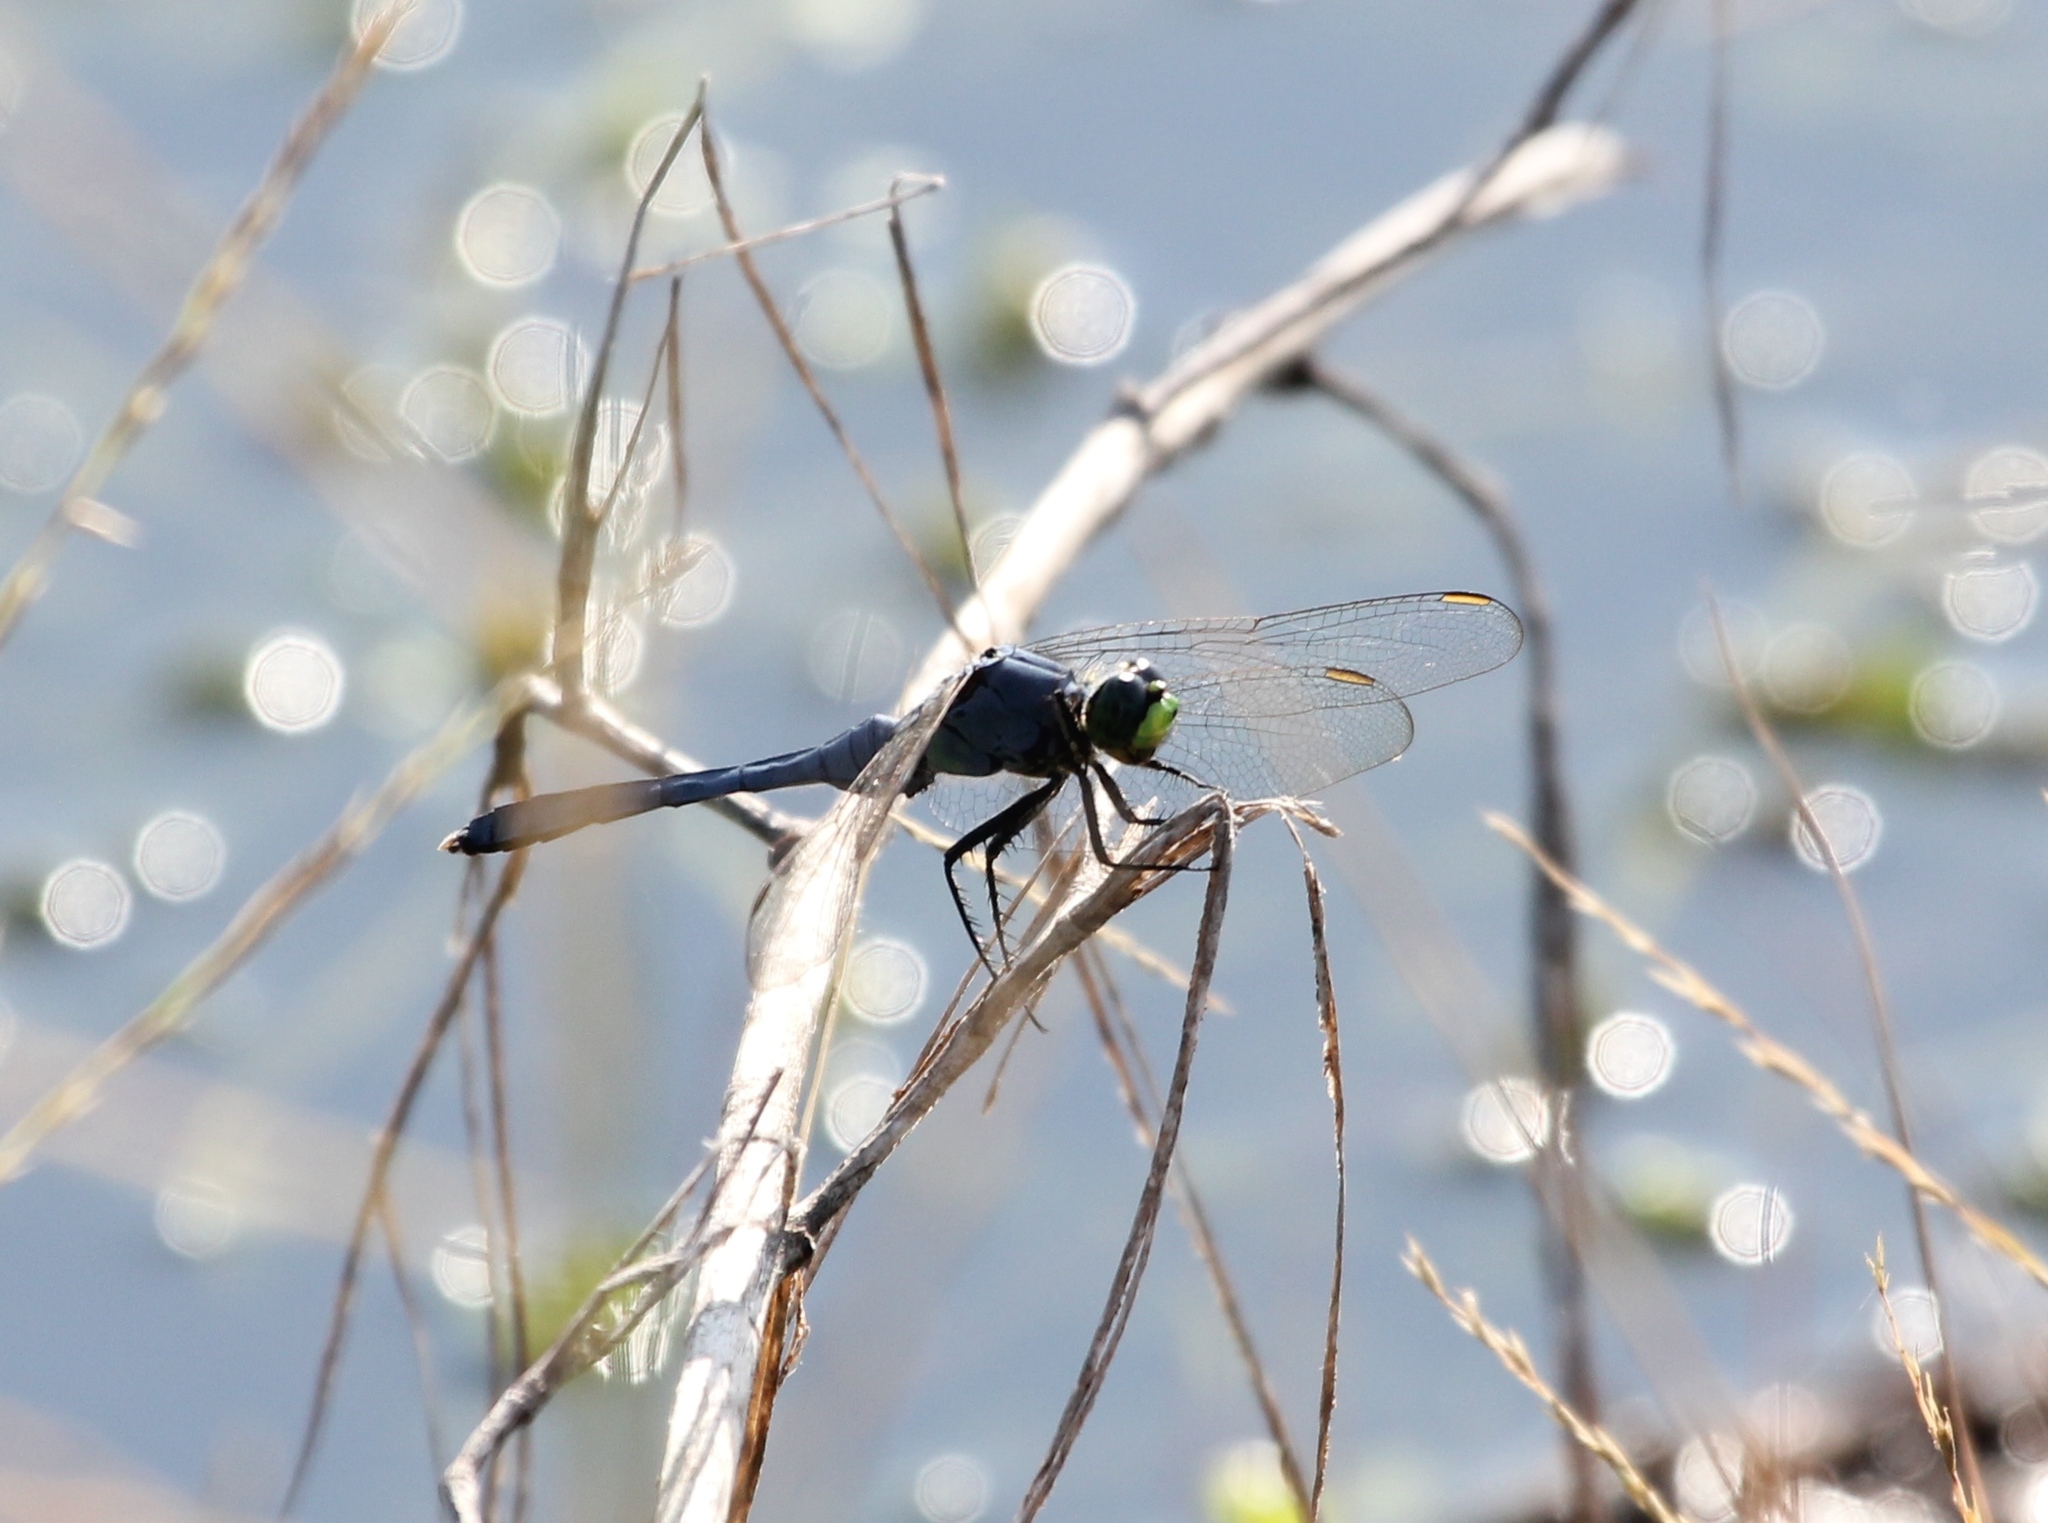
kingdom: Animalia
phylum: Arthropoda
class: Insecta
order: Odonata
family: Libellulidae
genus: Erythemis
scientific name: Erythemis simplicicollis
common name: Eastern pondhawk
